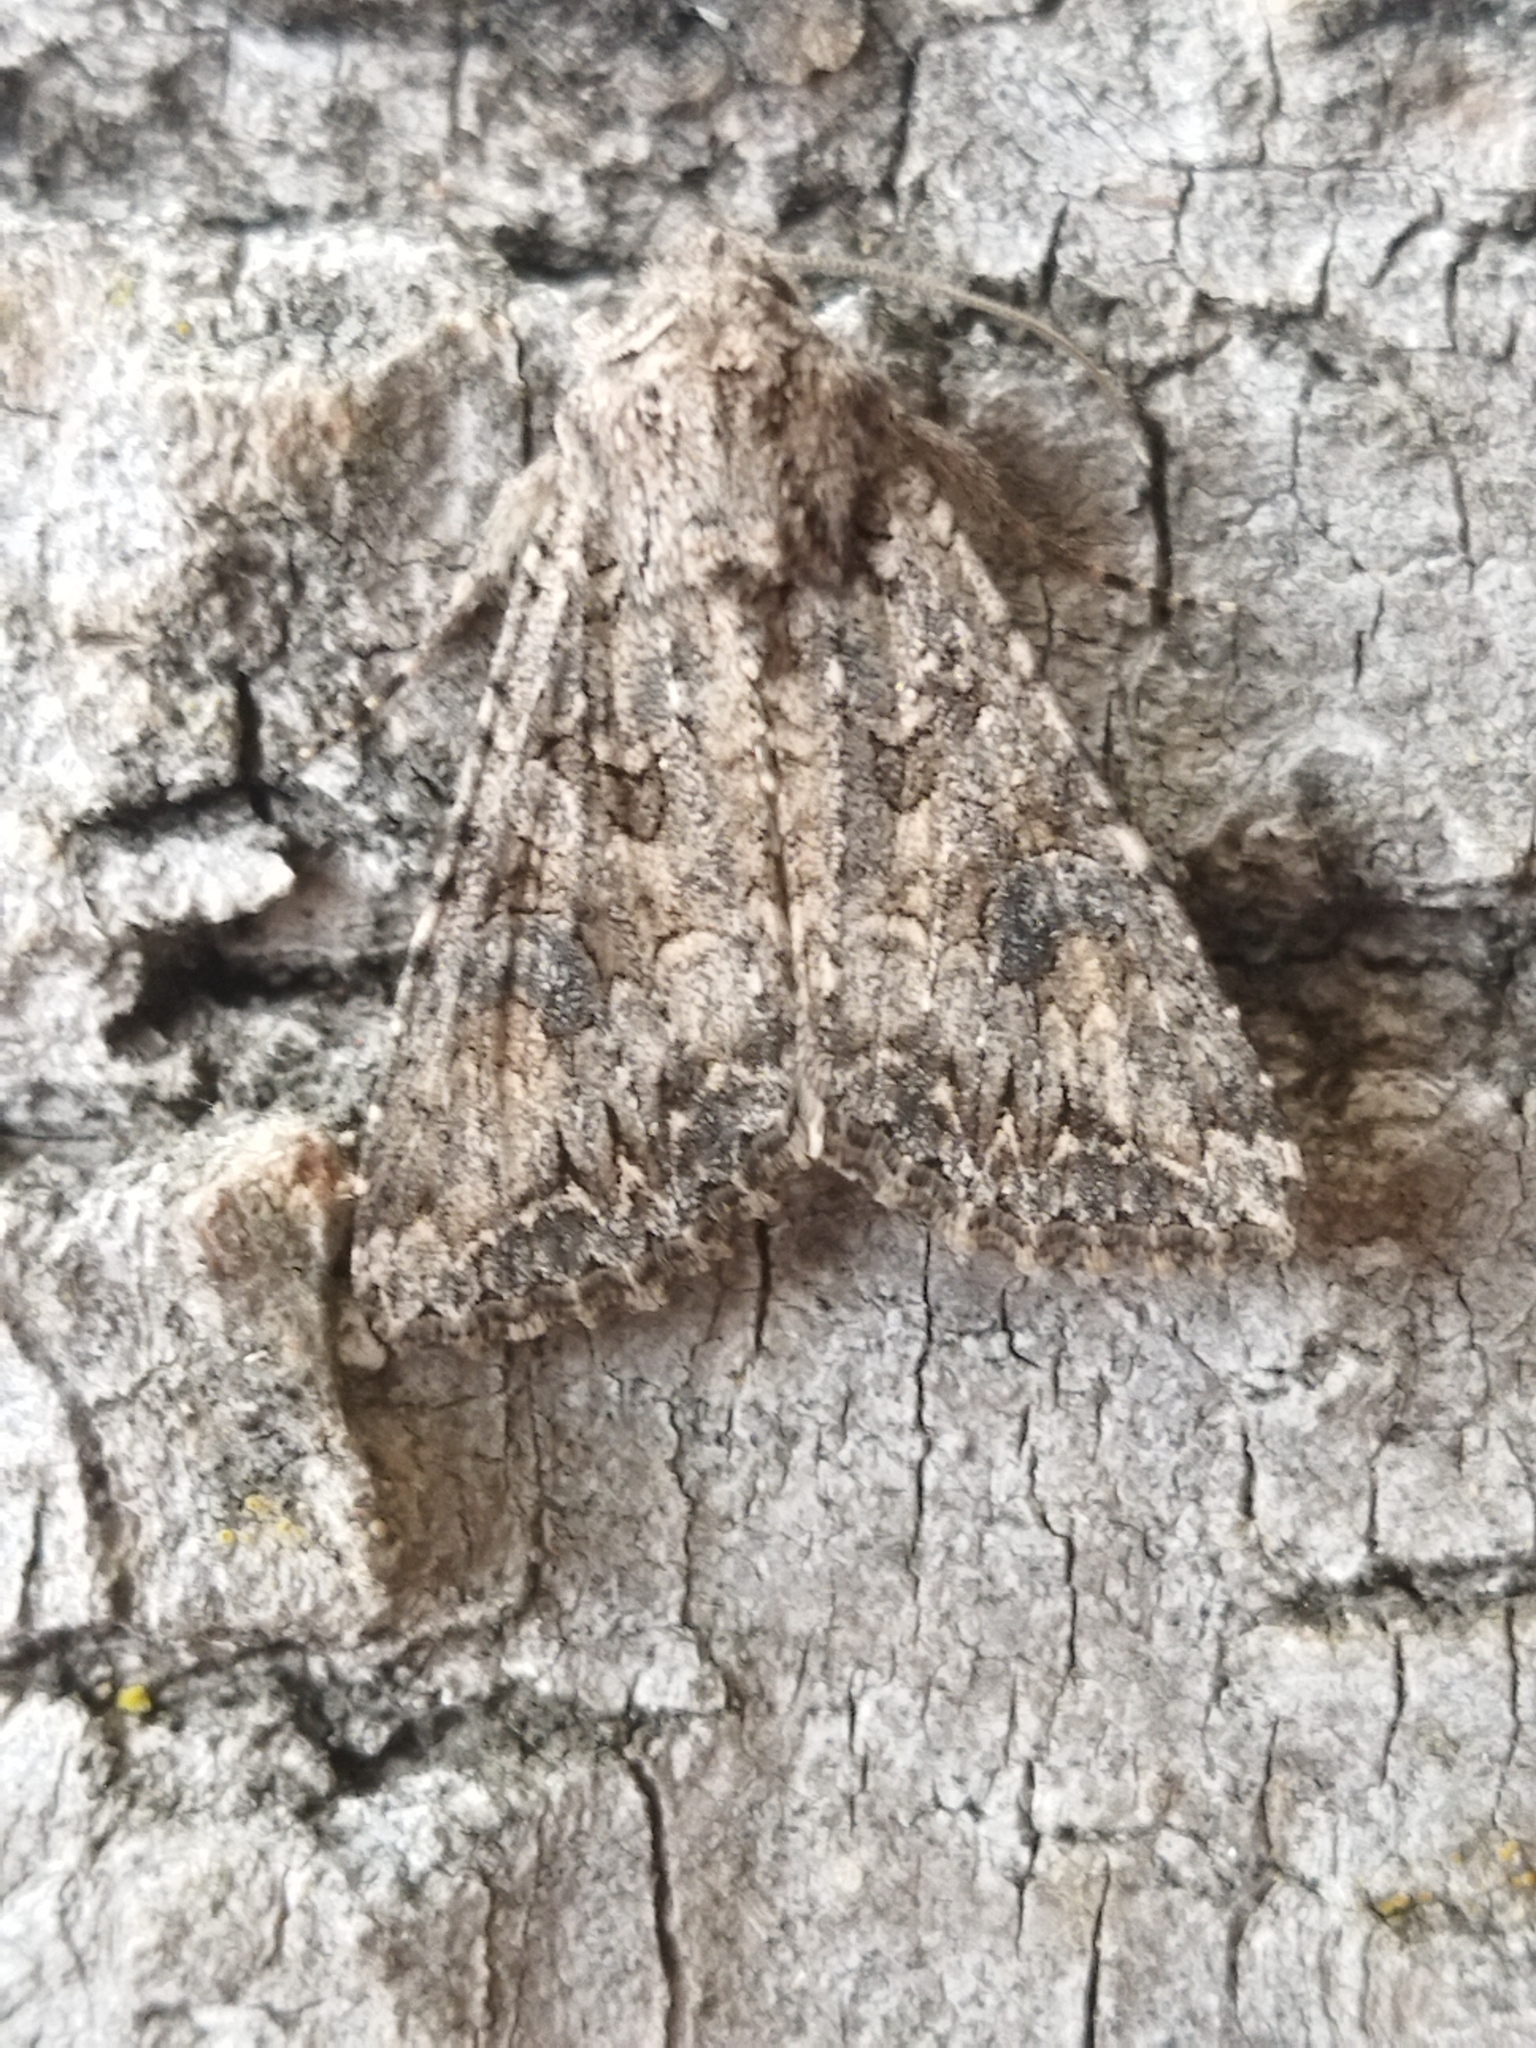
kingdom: Animalia
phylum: Arthropoda
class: Insecta
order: Lepidoptera
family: Noctuidae
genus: Anarta
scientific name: Anarta trifolii
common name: Clover cutworm moth
